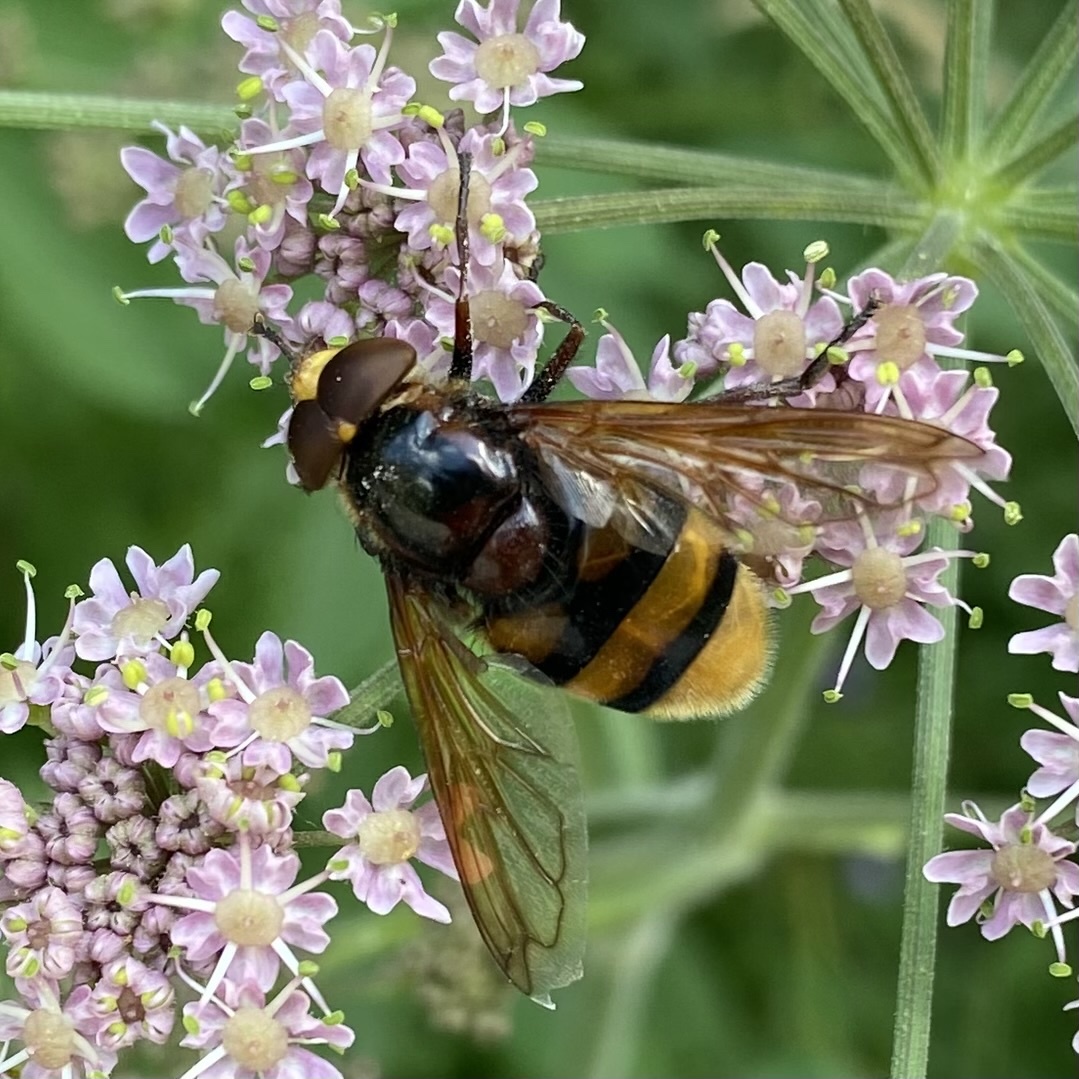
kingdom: Animalia
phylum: Arthropoda
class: Insecta
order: Diptera
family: Syrphidae
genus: Volucella
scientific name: Volucella zonaria
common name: Hornet hoverfly
